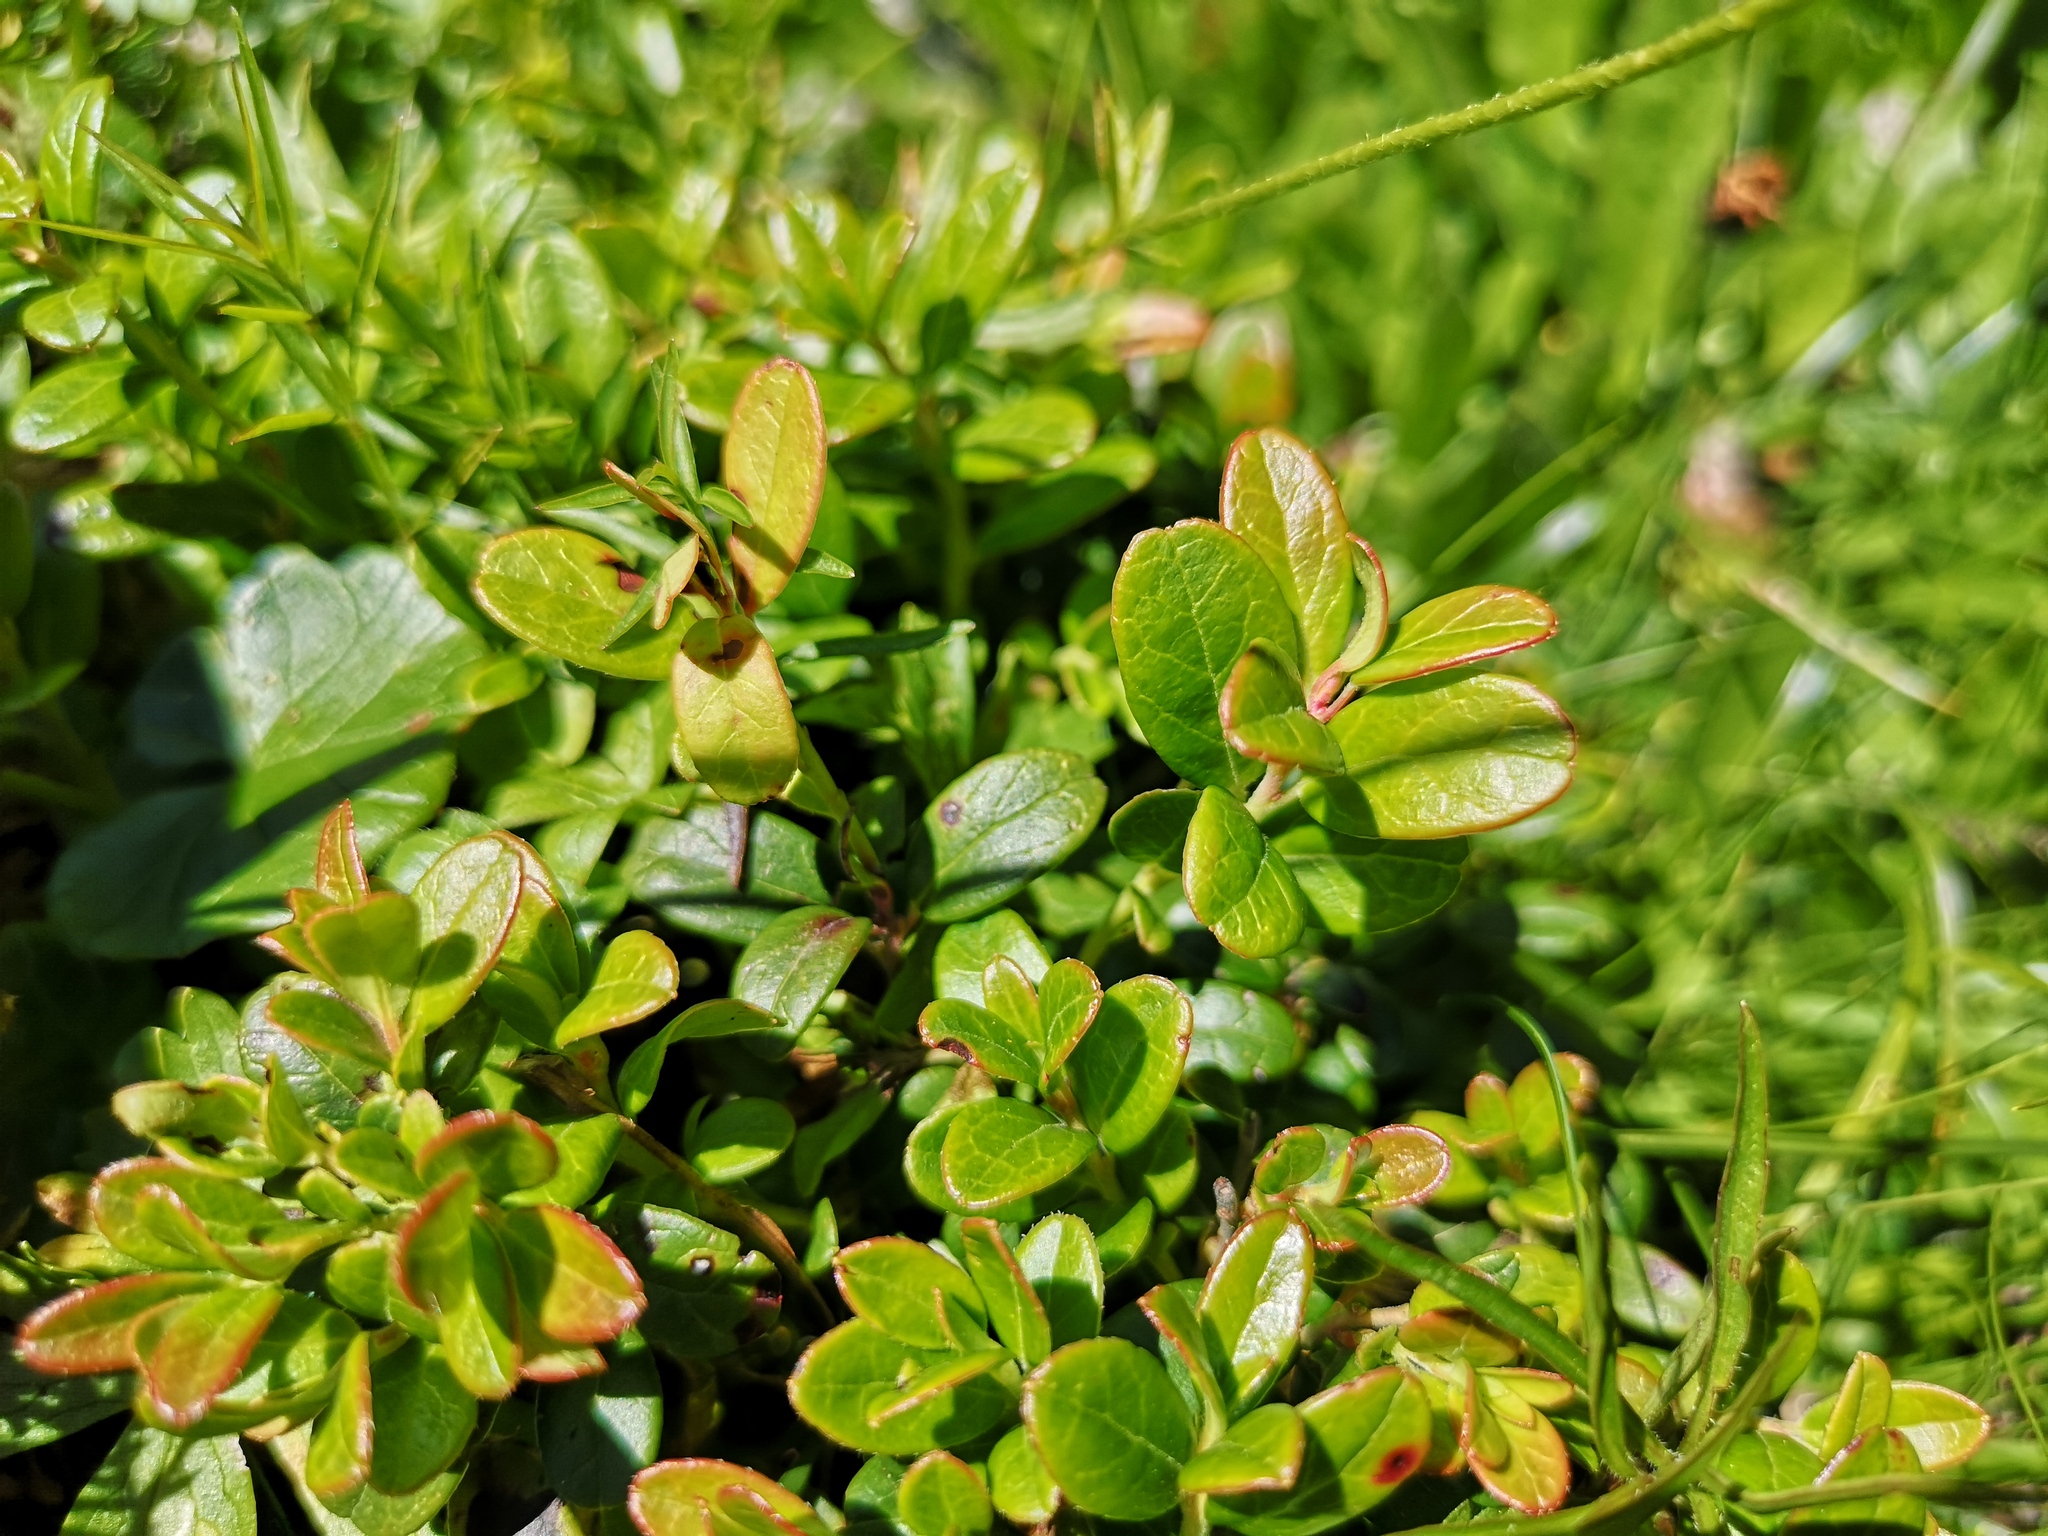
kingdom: Plantae
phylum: Tracheophyta
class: Magnoliopsida
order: Ericales
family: Ericaceae
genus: Vaccinium
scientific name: Vaccinium vitis-idaea
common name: Cowberry
